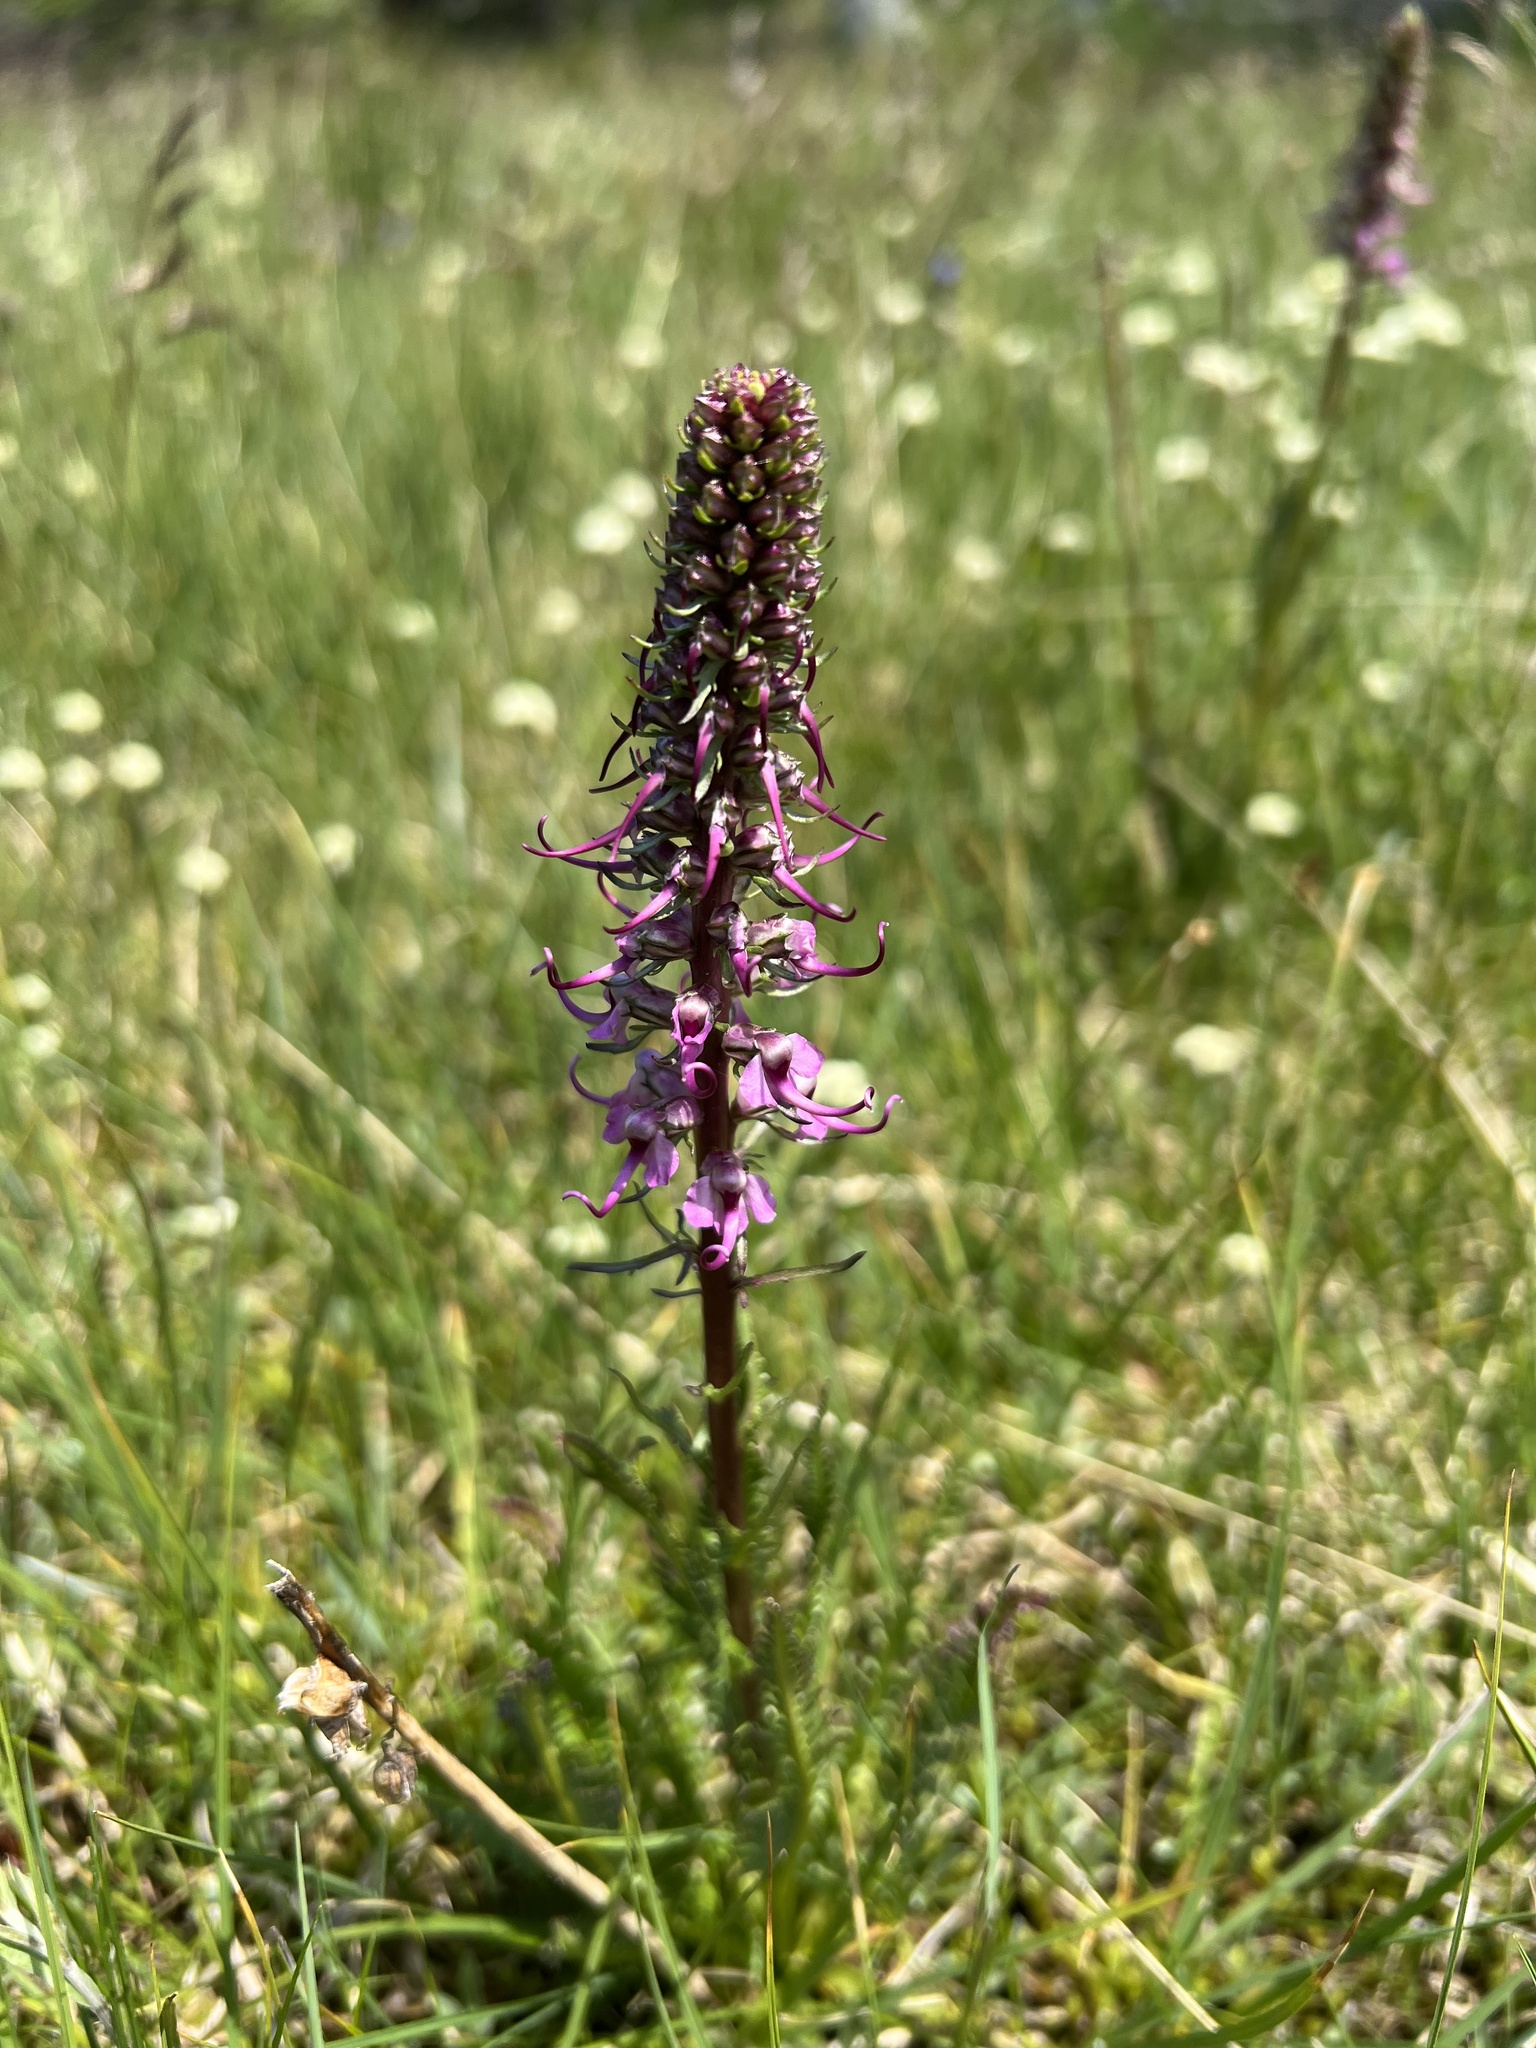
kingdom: Plantae
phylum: Tracheophyta
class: Magnoliopsida
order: Lamiales
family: Orobanchaceae
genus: Pedicularis
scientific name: Pedicularis groenlandica
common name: Elephant's-head
